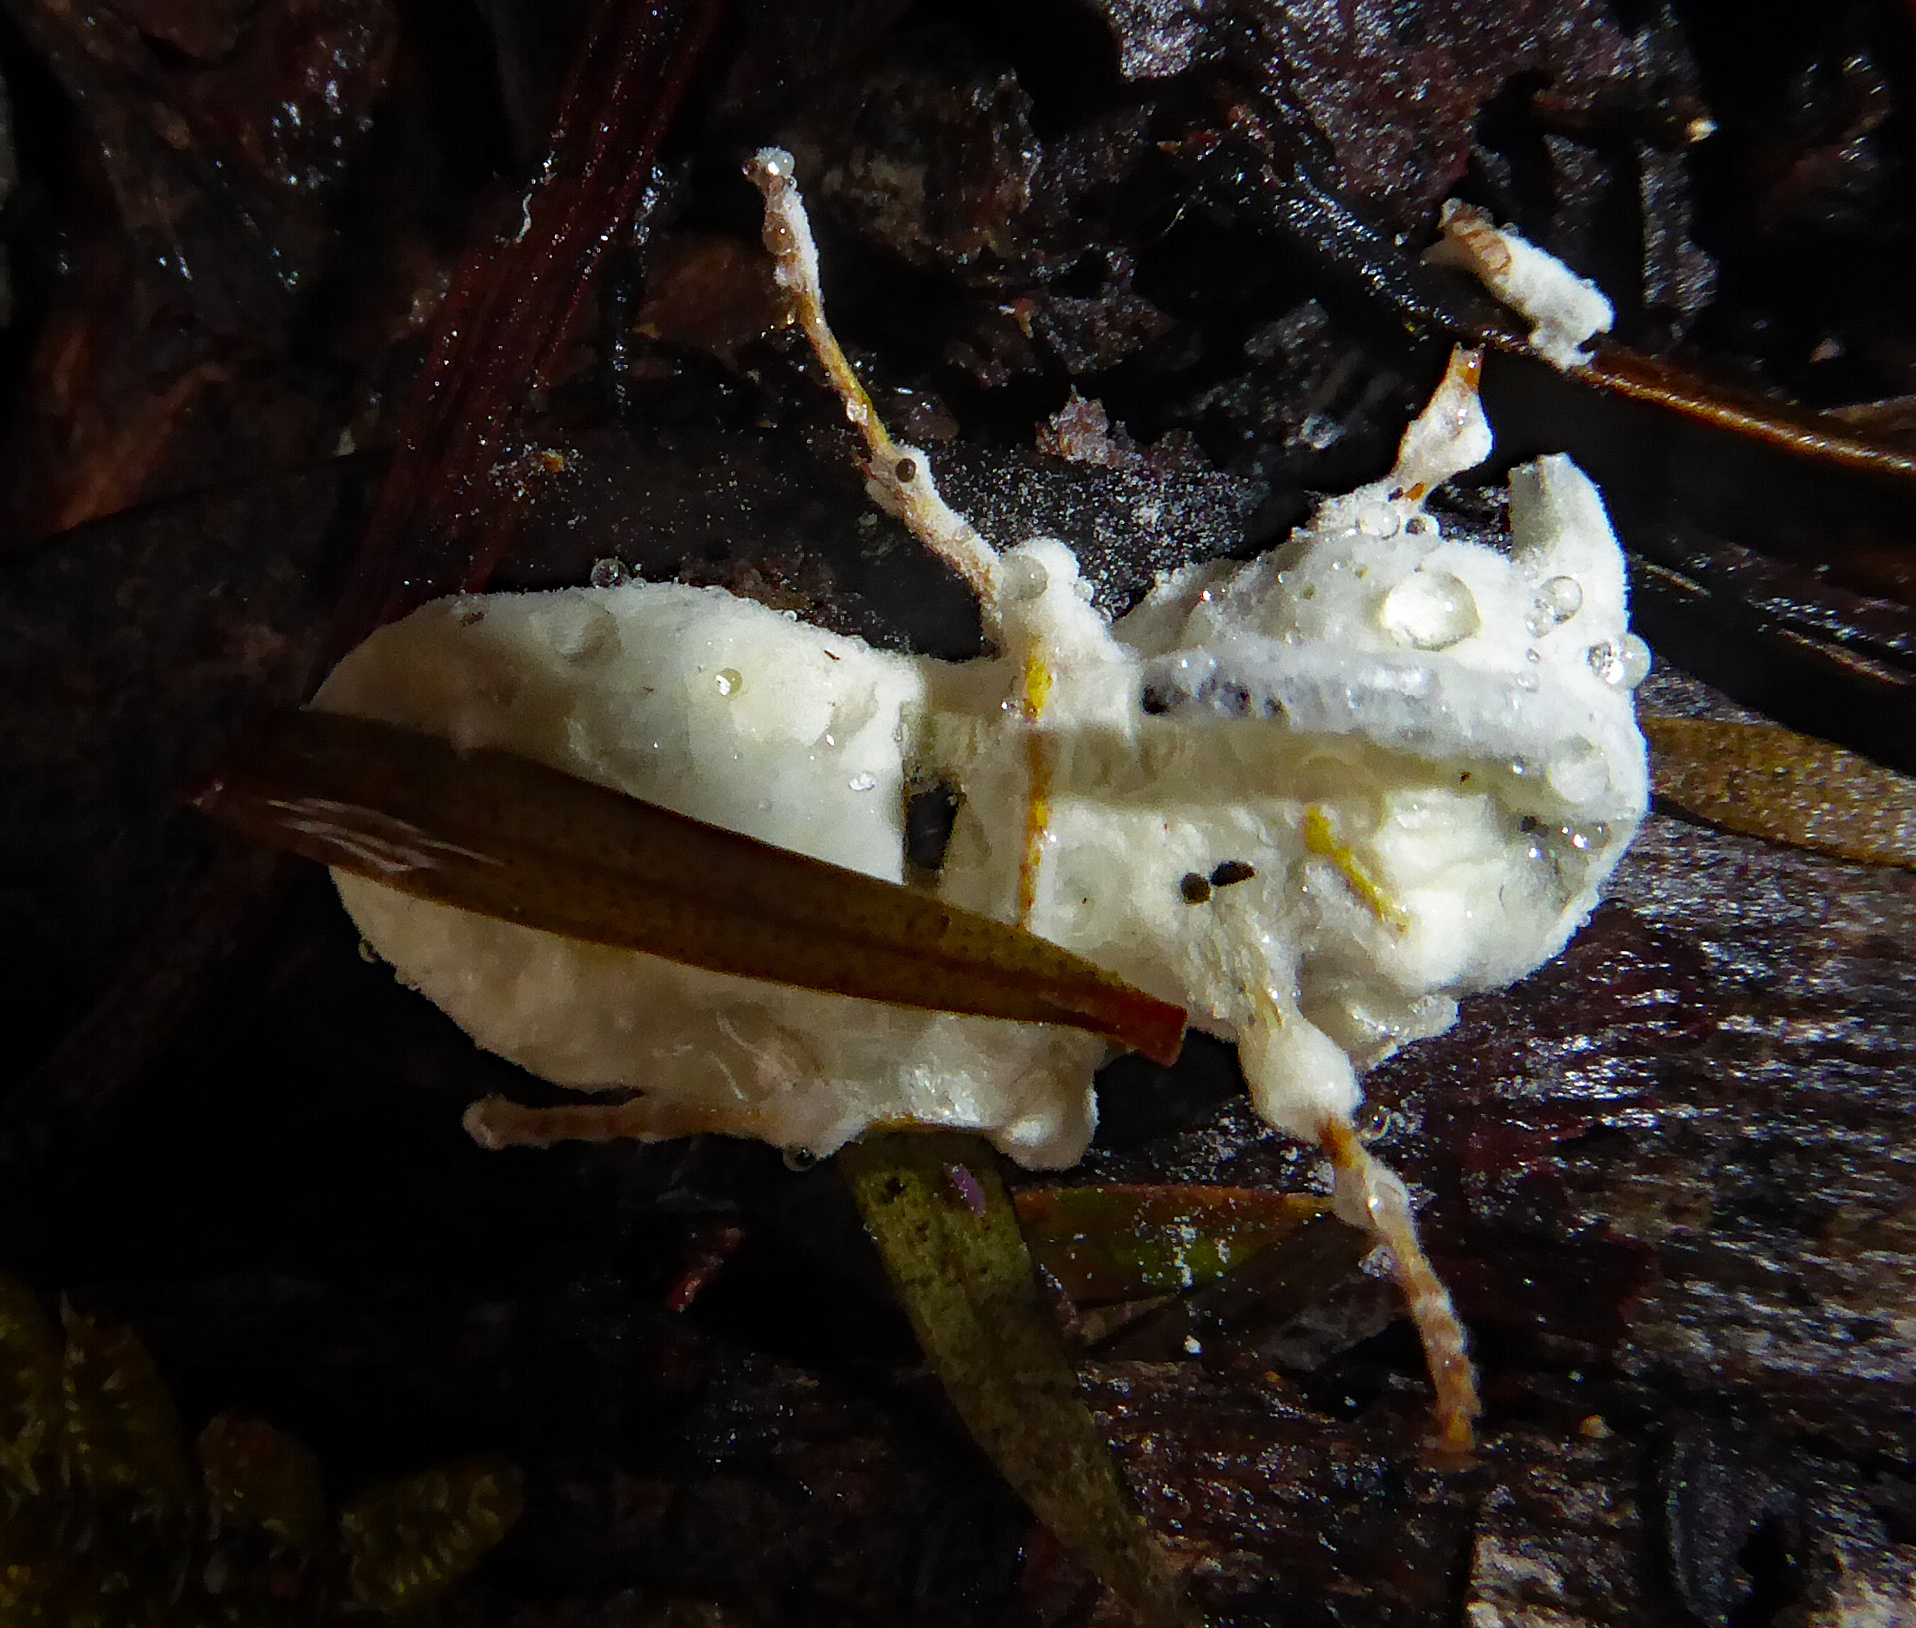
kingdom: Fungi
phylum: Ascomycota
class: Sordariomycetes
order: Hypocreales
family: Cordycipitaceae
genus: Beauveria
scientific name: Beauveria bassiana
